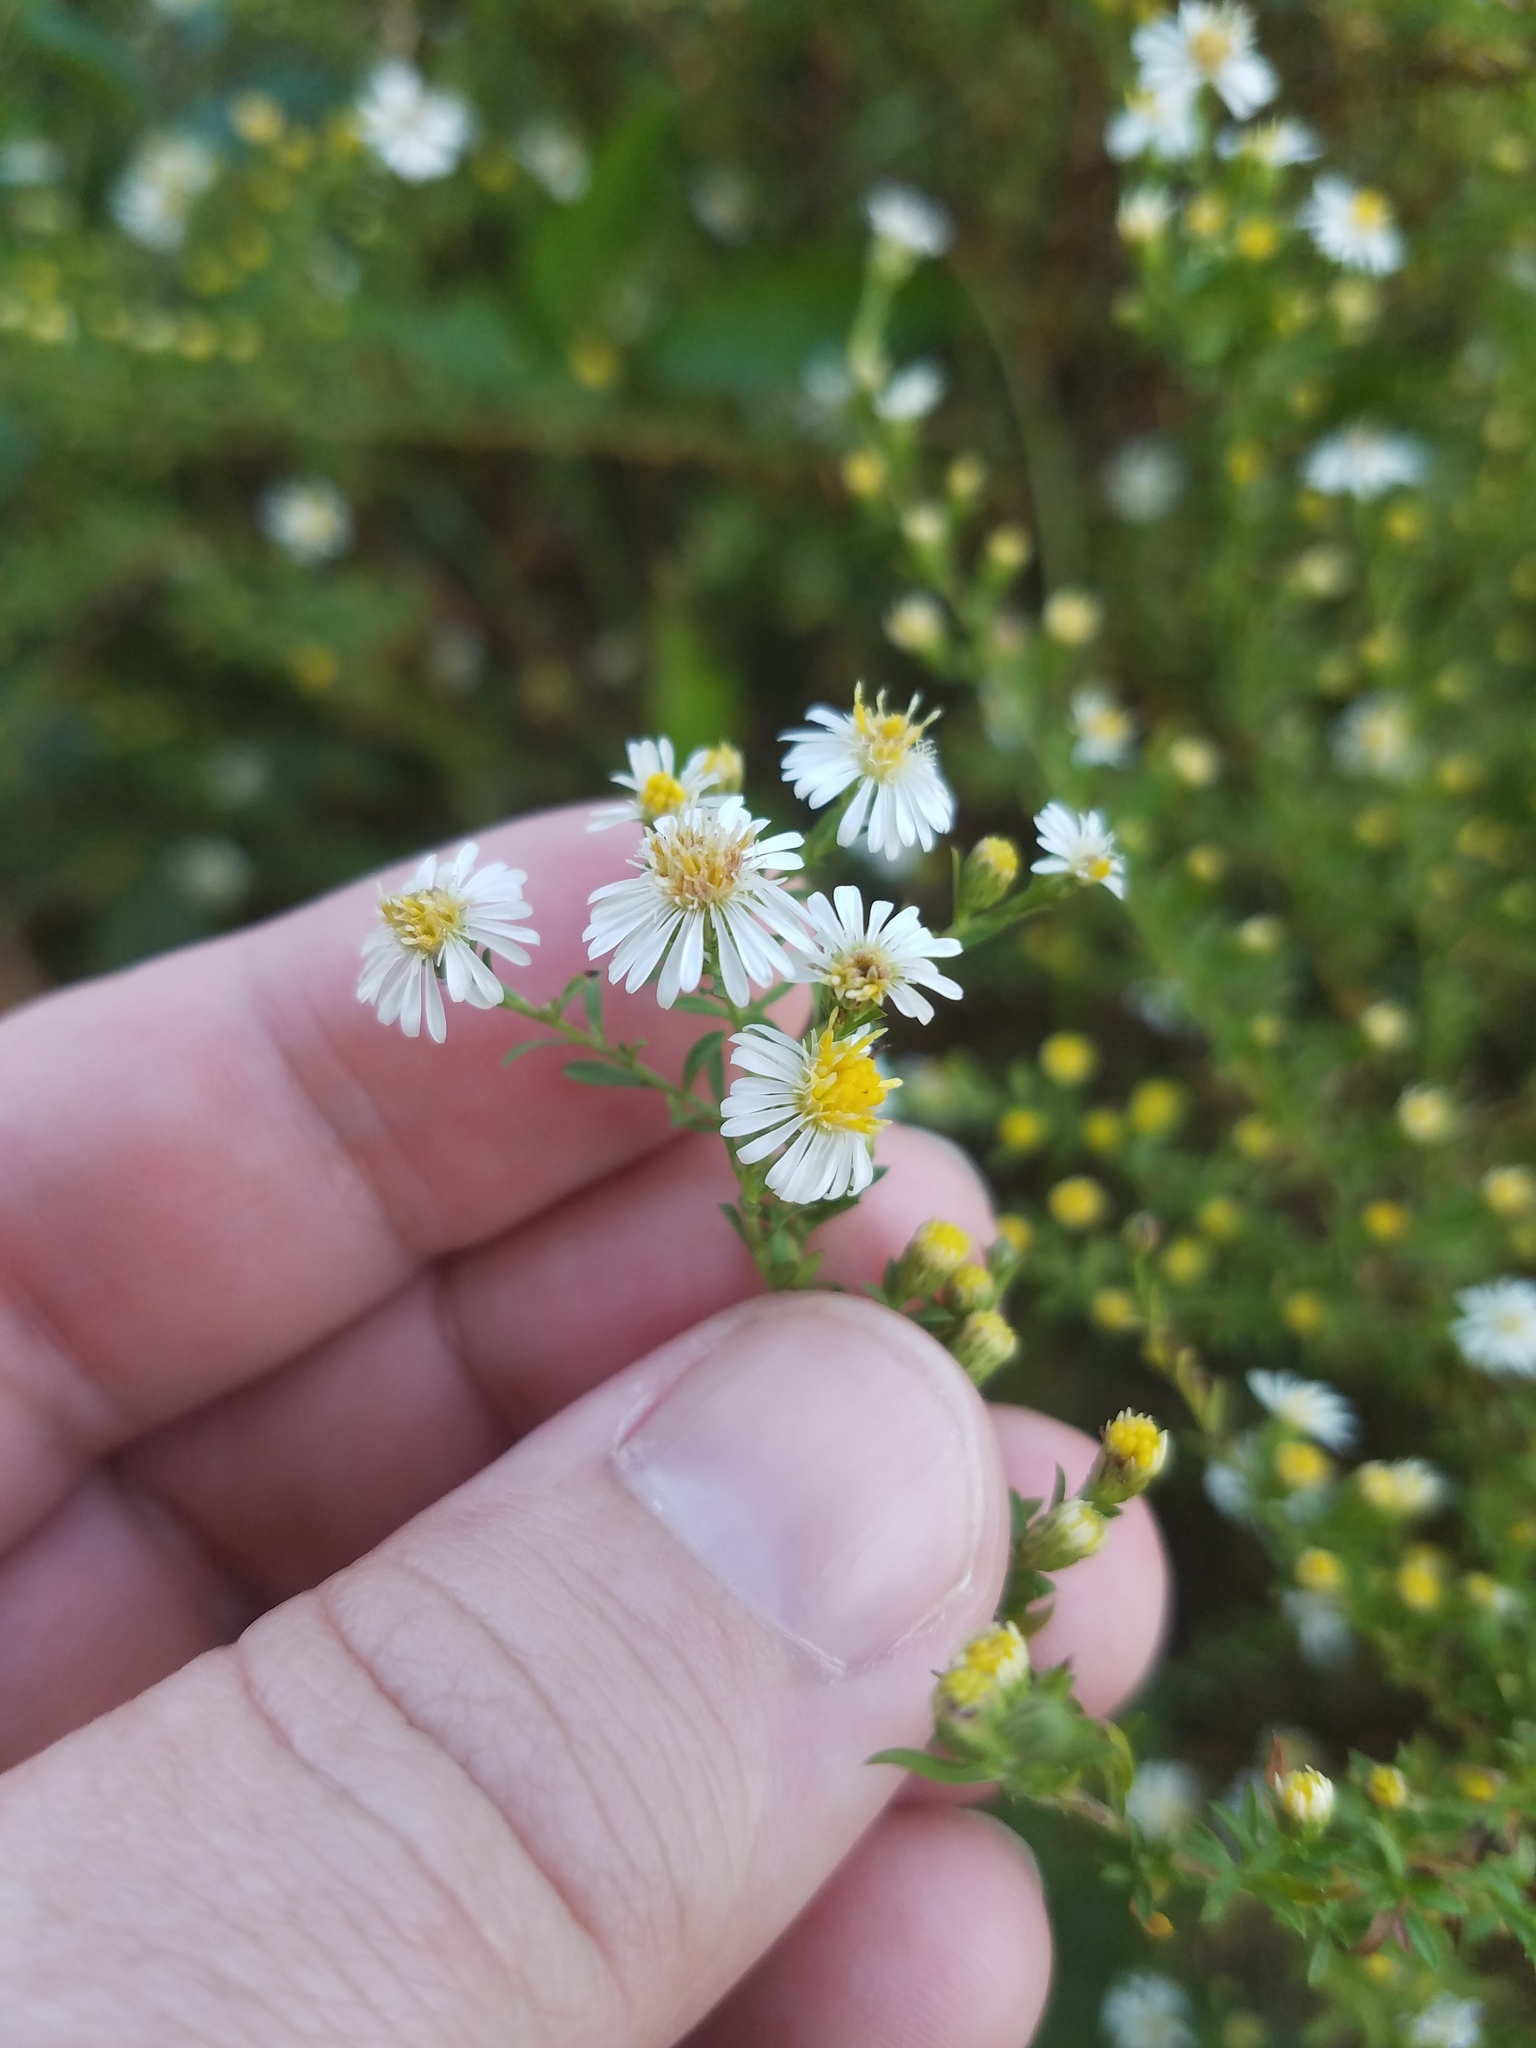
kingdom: Plantae
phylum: Tracheophyta
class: Magnoliopsida
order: Asterales
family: Asteraceae
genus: Symphyotrichum
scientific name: Symphyotrichum racemosum
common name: Small white aster
